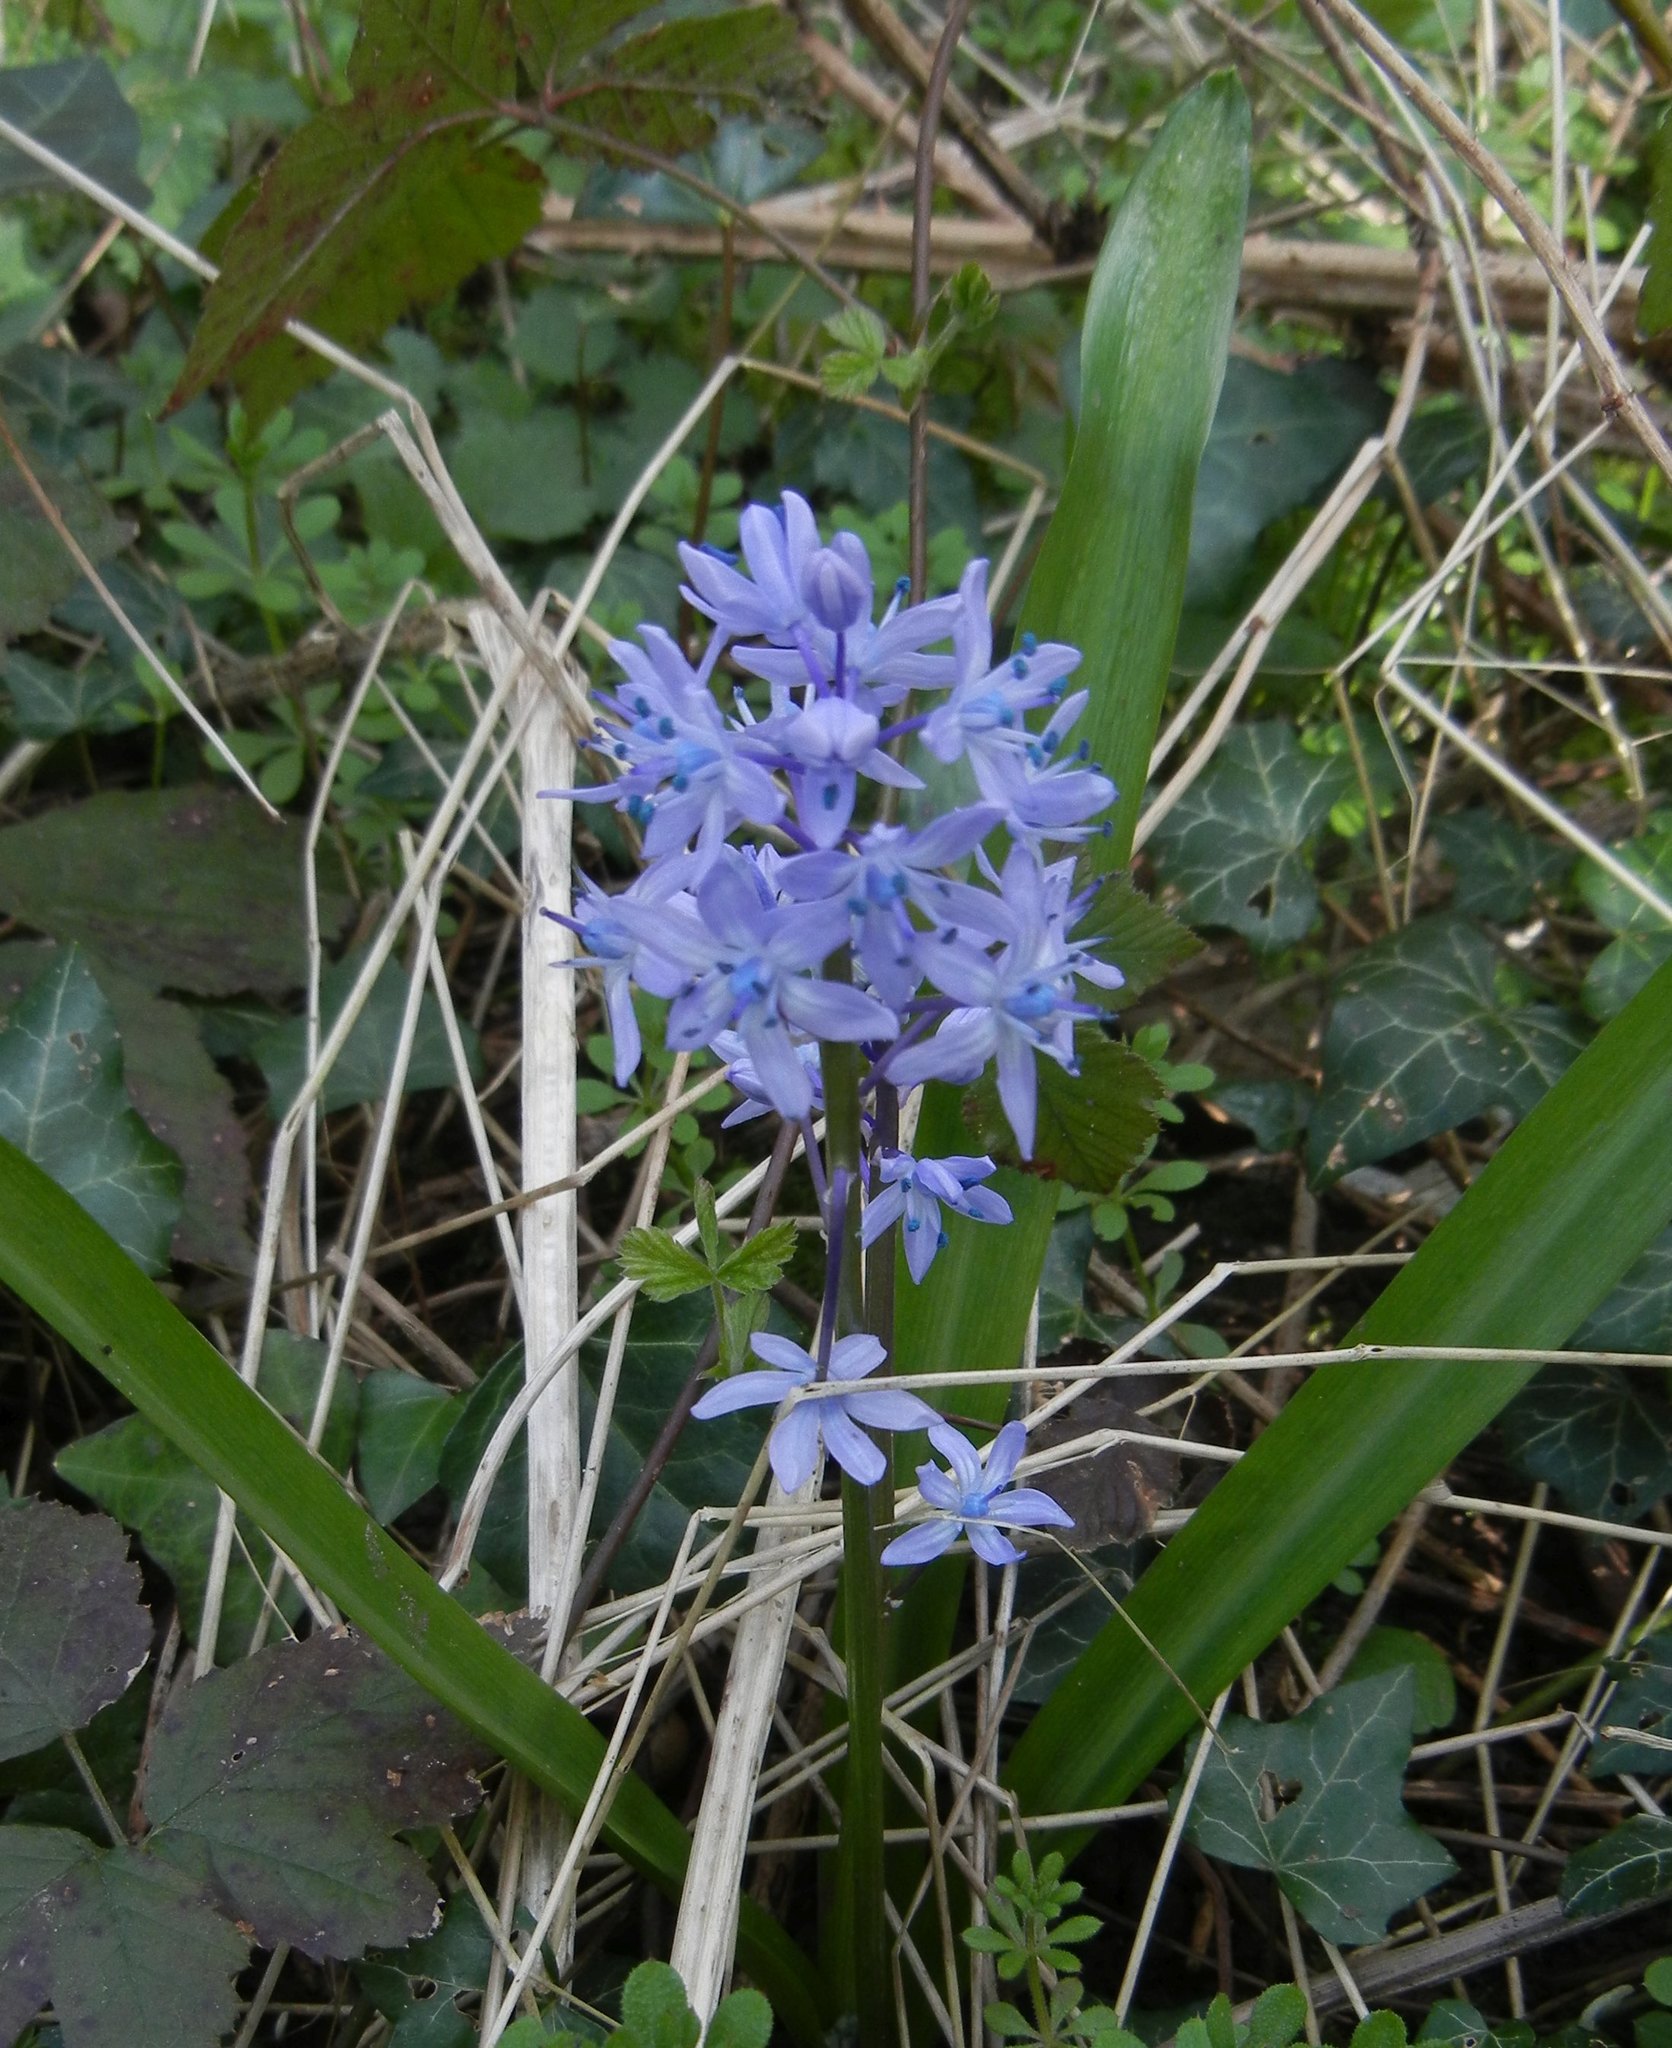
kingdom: Plantae
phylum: Tracheophyta
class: Liliopsida
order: Asparagales
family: Asparagaceae
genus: Scilla
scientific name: Scilla bithynica
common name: Turkish squill
